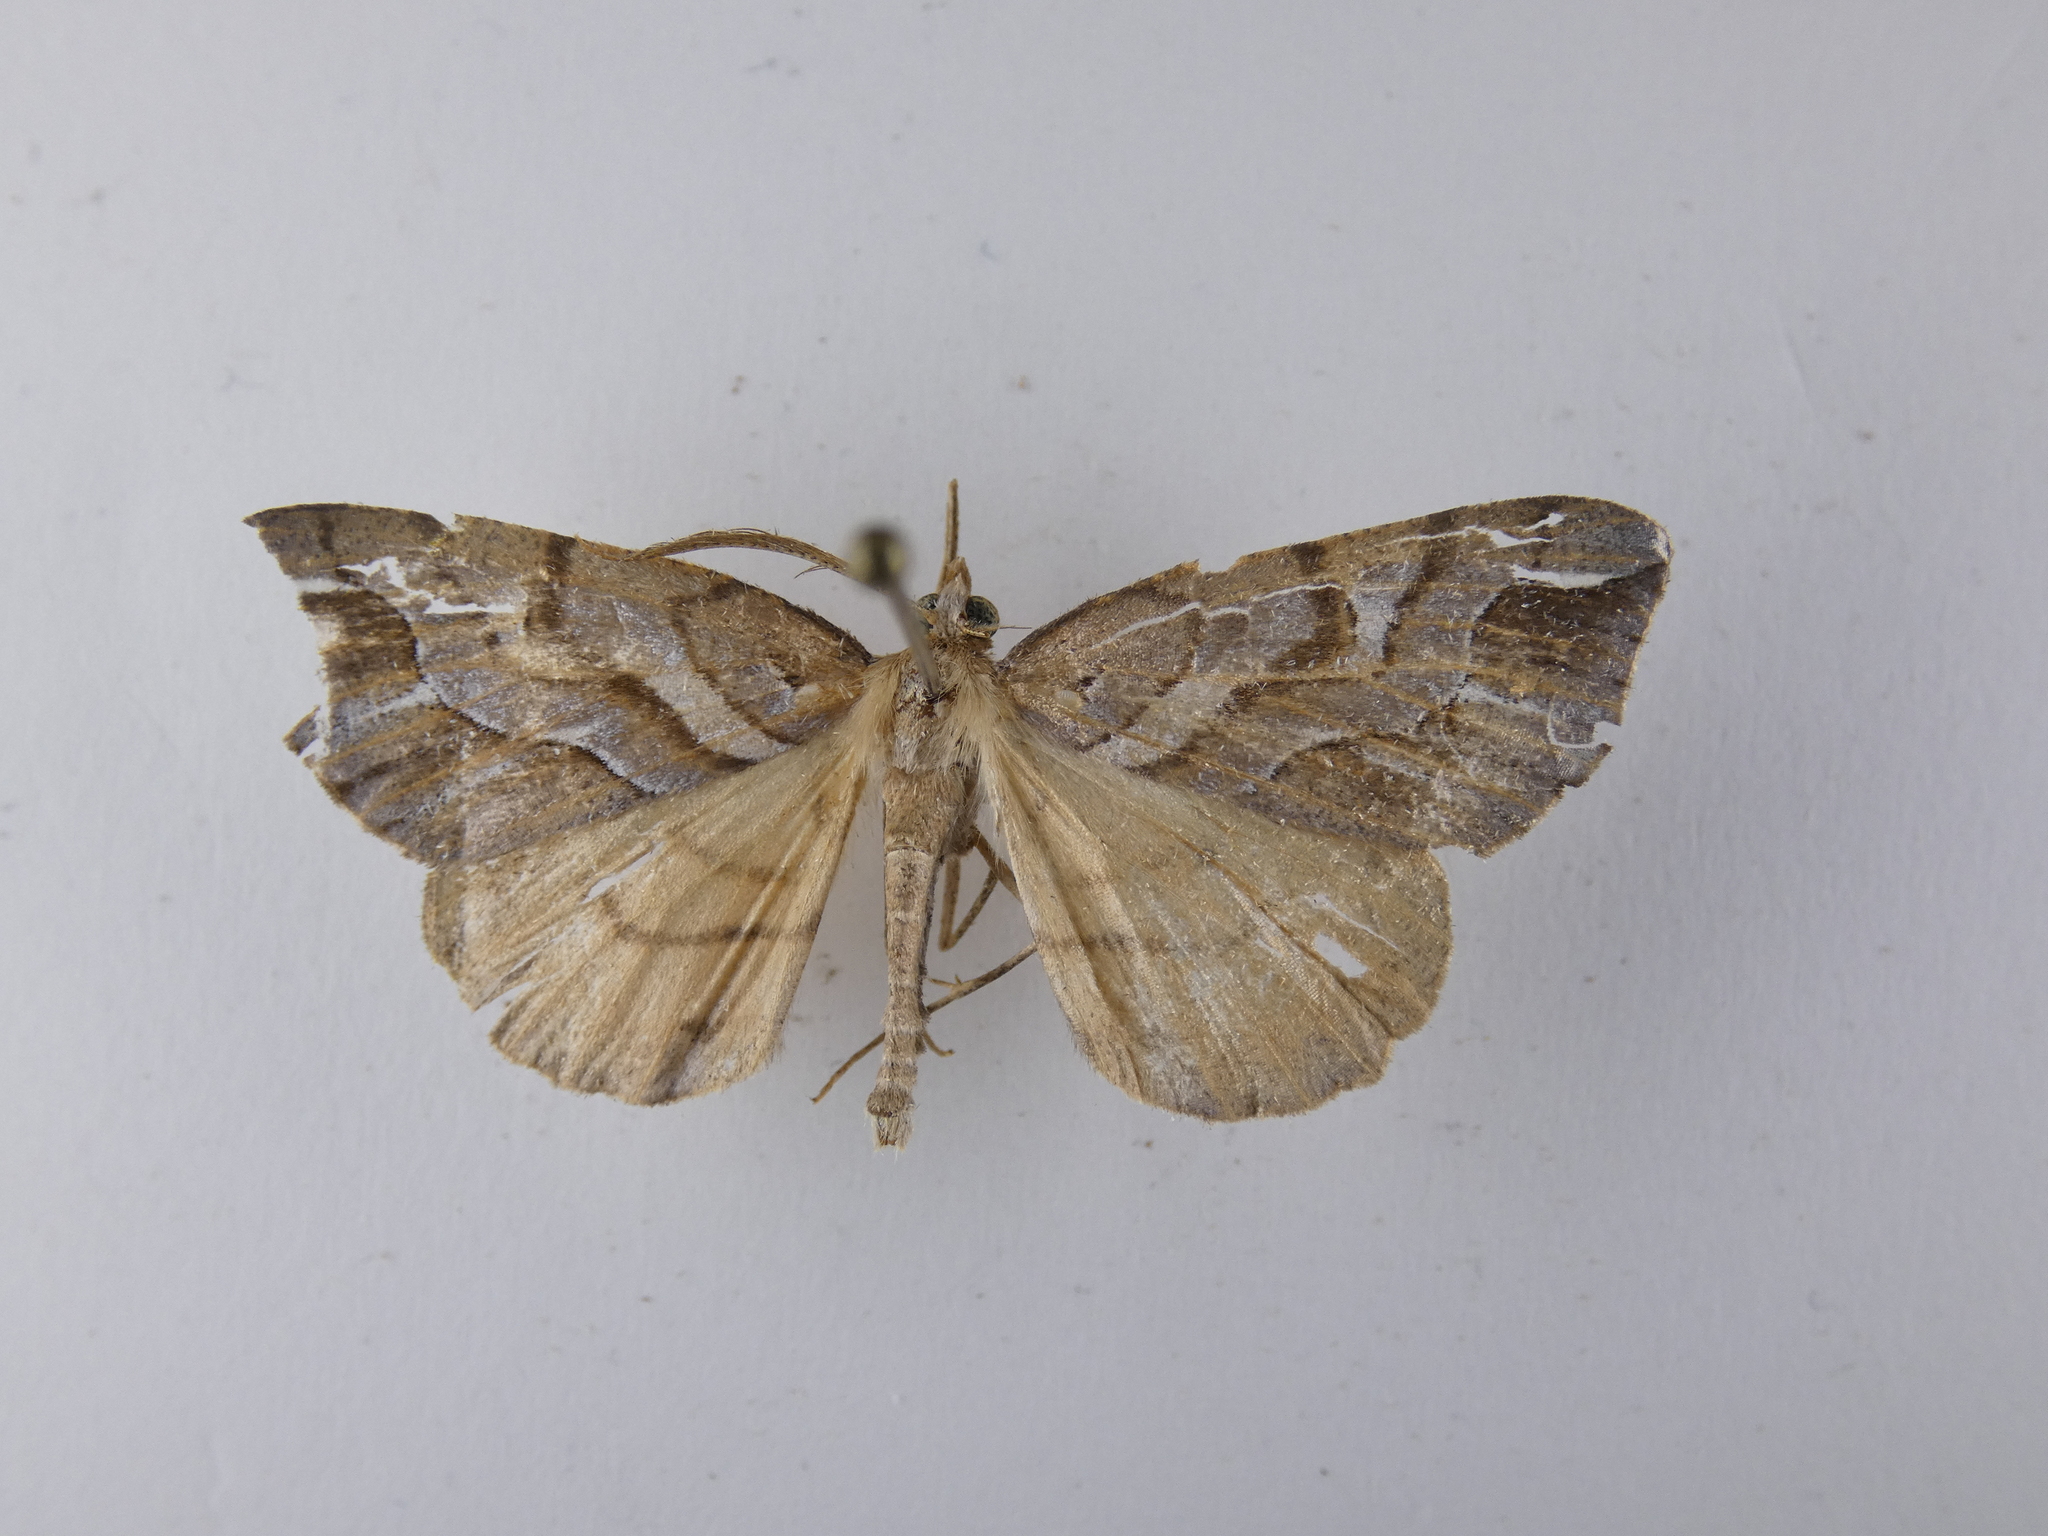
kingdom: Animalia
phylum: Arthropoda
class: Insecta
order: Lepidoptera
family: Geometridae
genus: Chalastra
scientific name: Chalastra aristarcha
